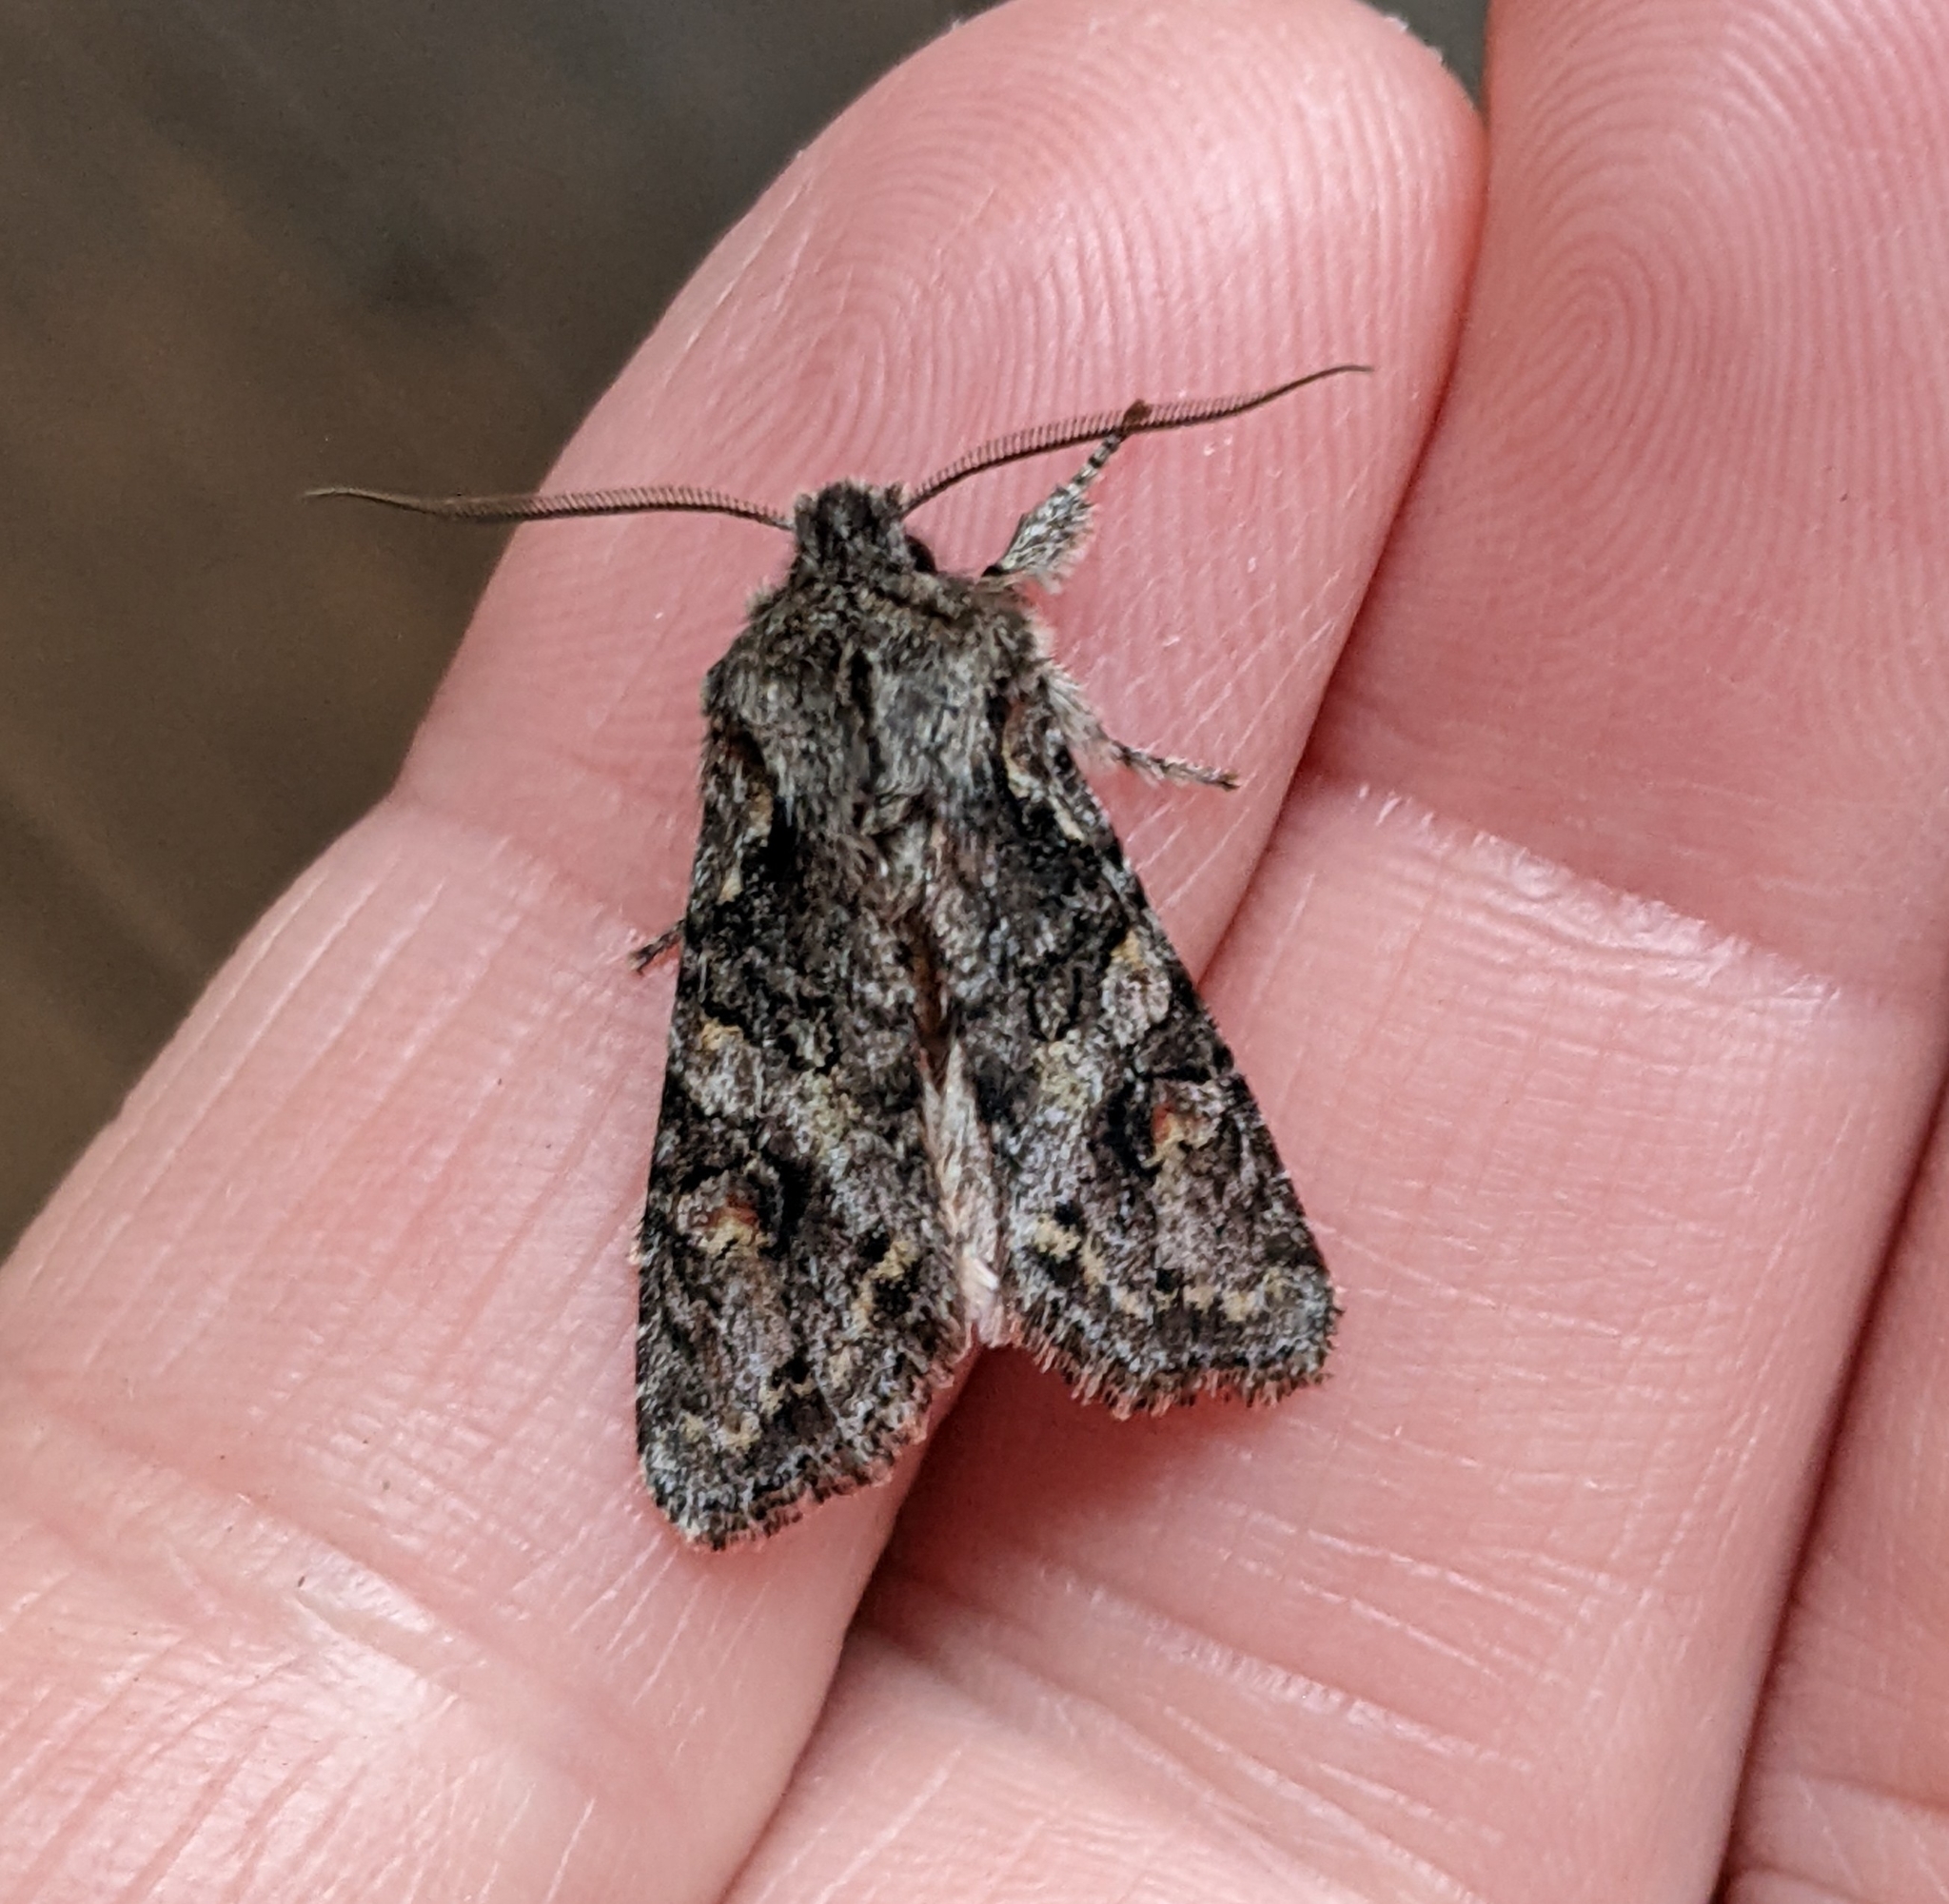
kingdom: Animalia
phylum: Arthropoda
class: Insecta
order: Lepidoptera
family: Noctuidae
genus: Egira
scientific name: Egira hiemalis
